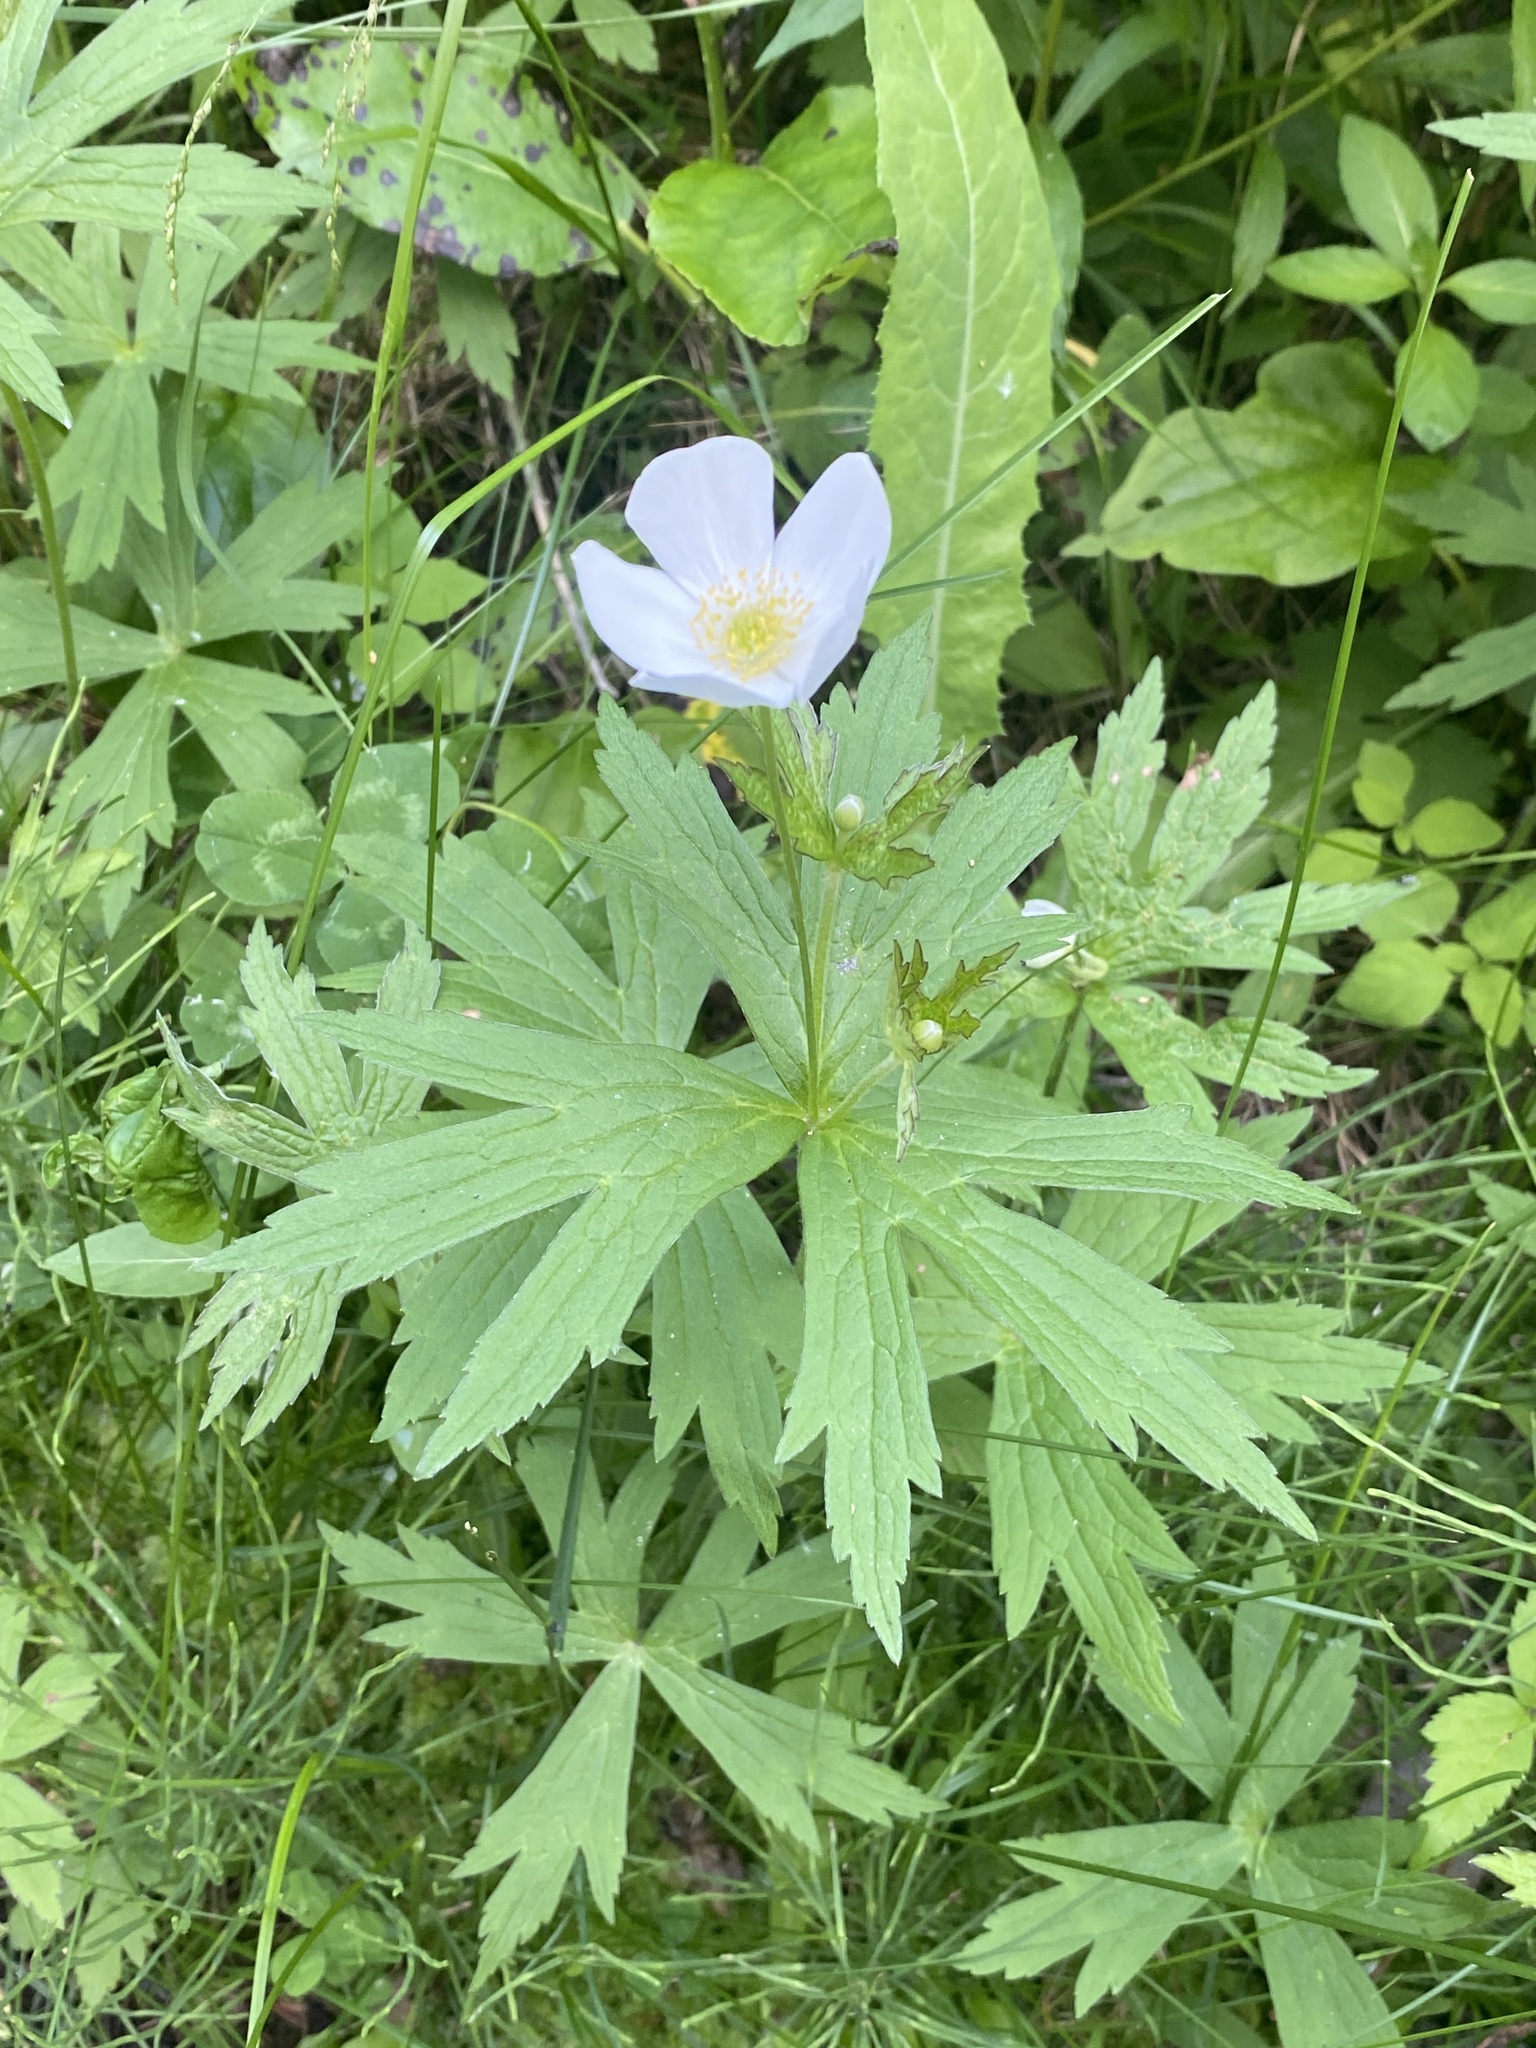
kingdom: Plantae
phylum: Tracheophyta
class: Magnoliopsida
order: Ranunculales
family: Ranunculaceae
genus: Anemonastrum
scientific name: Anemonastrum canadense
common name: Canada anemone
